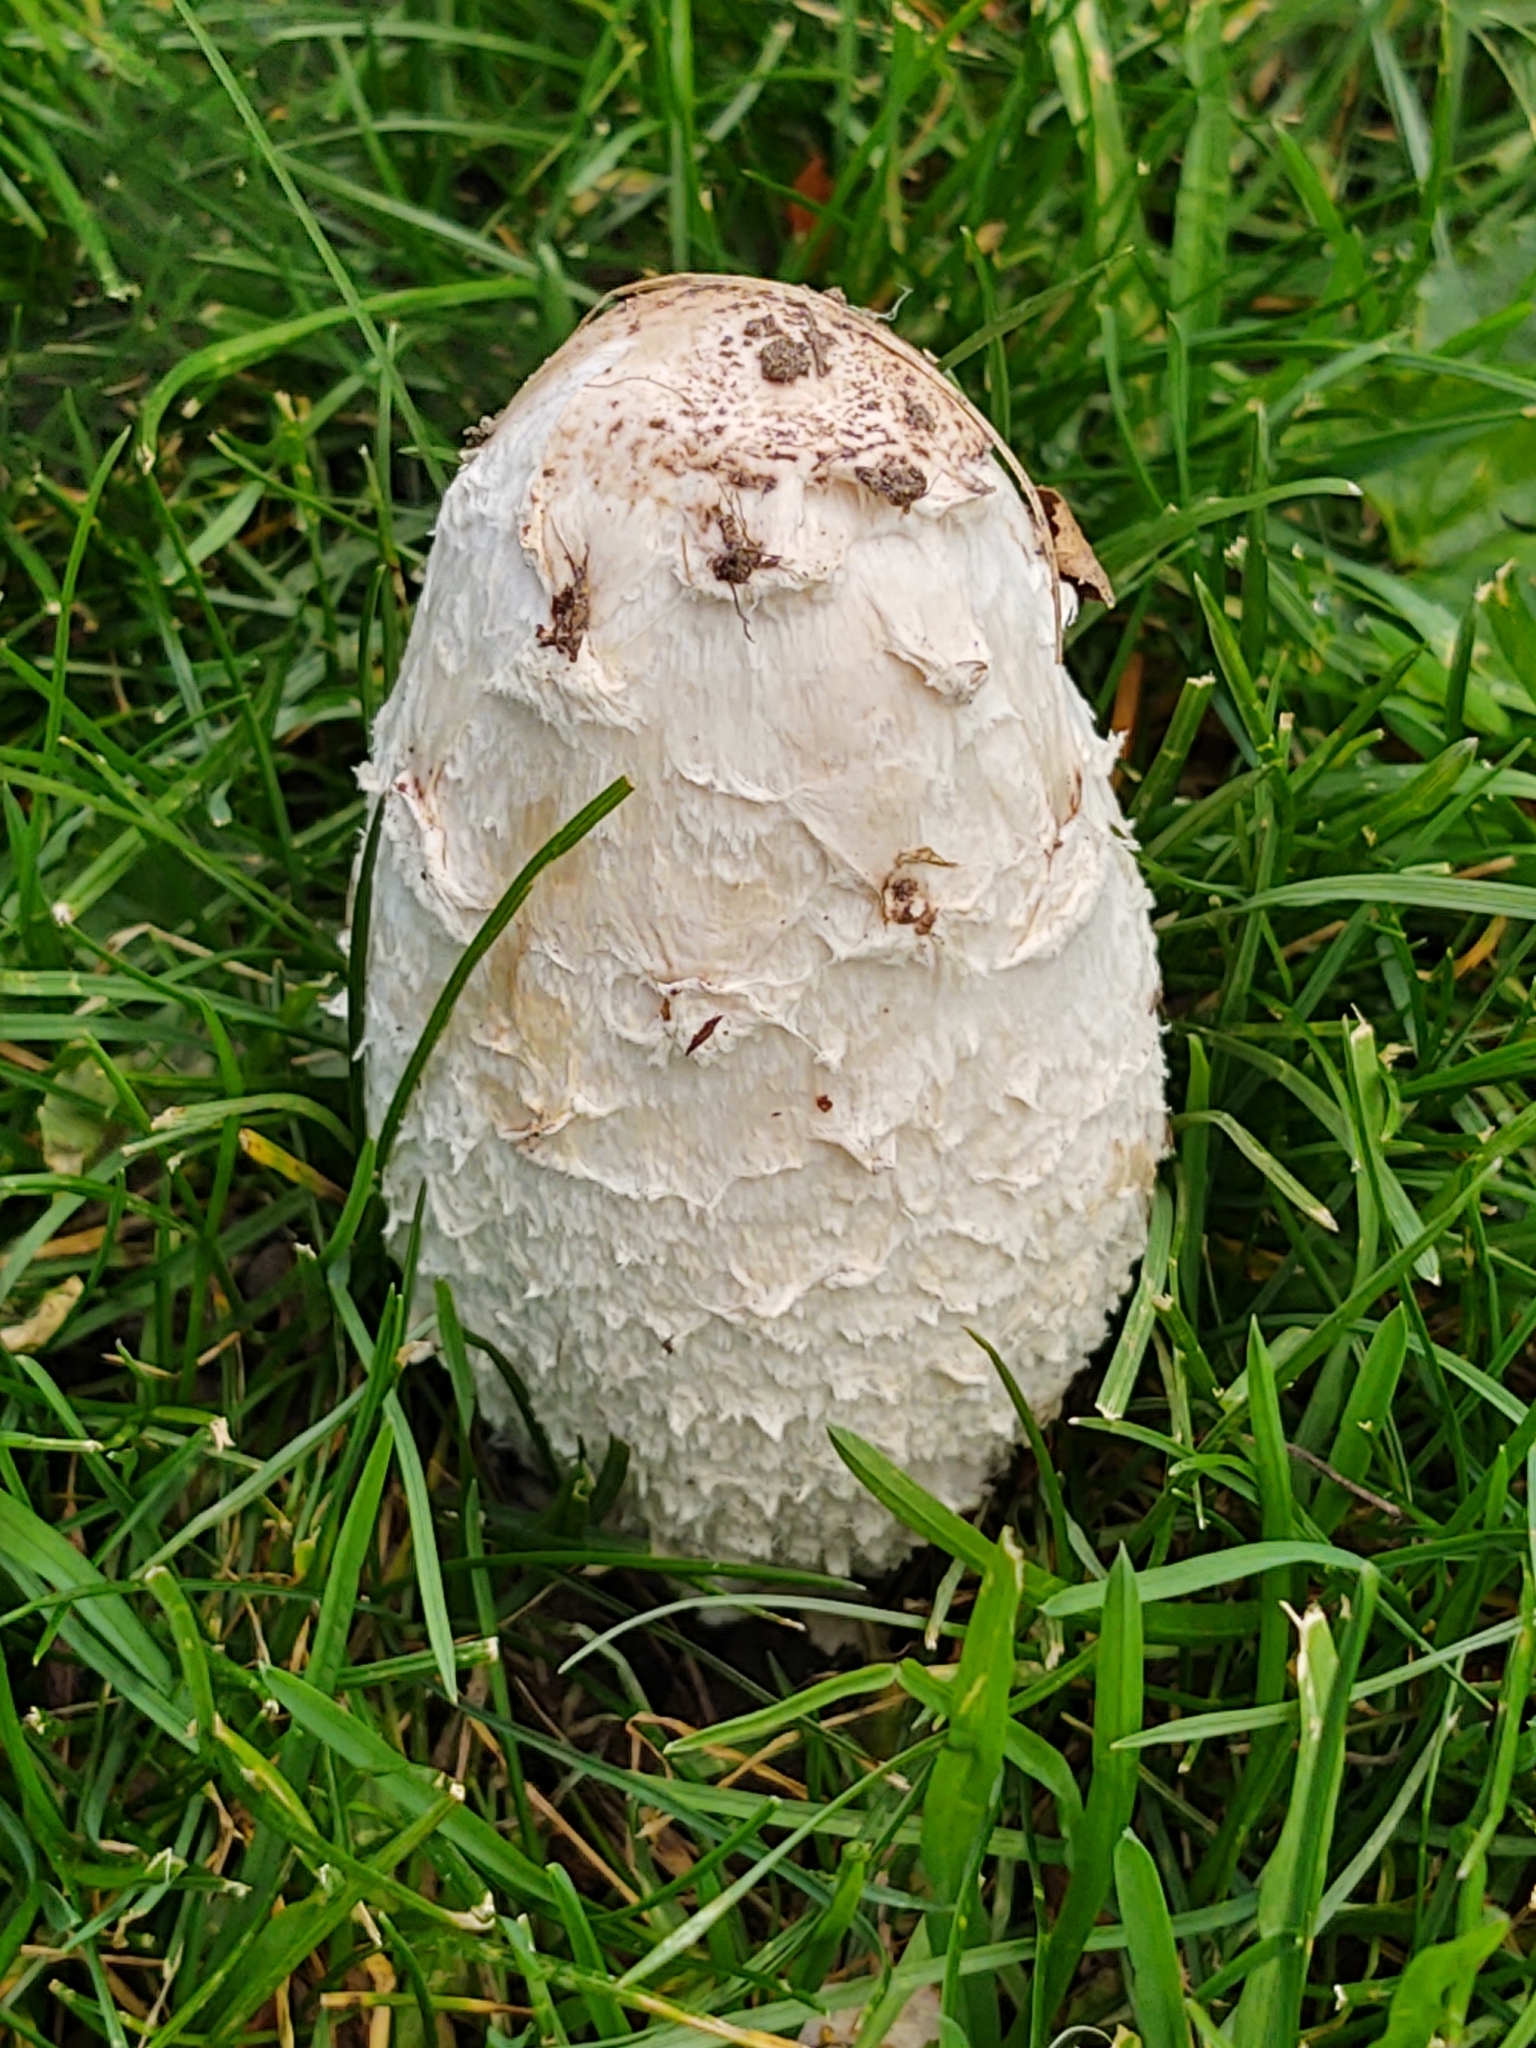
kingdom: Fungi
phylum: Basidiomycota
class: Agaricomycetes
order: Agaricales
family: Agaricaceae
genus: Coprinus
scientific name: Coprinus comatus
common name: Lawyer's wig
